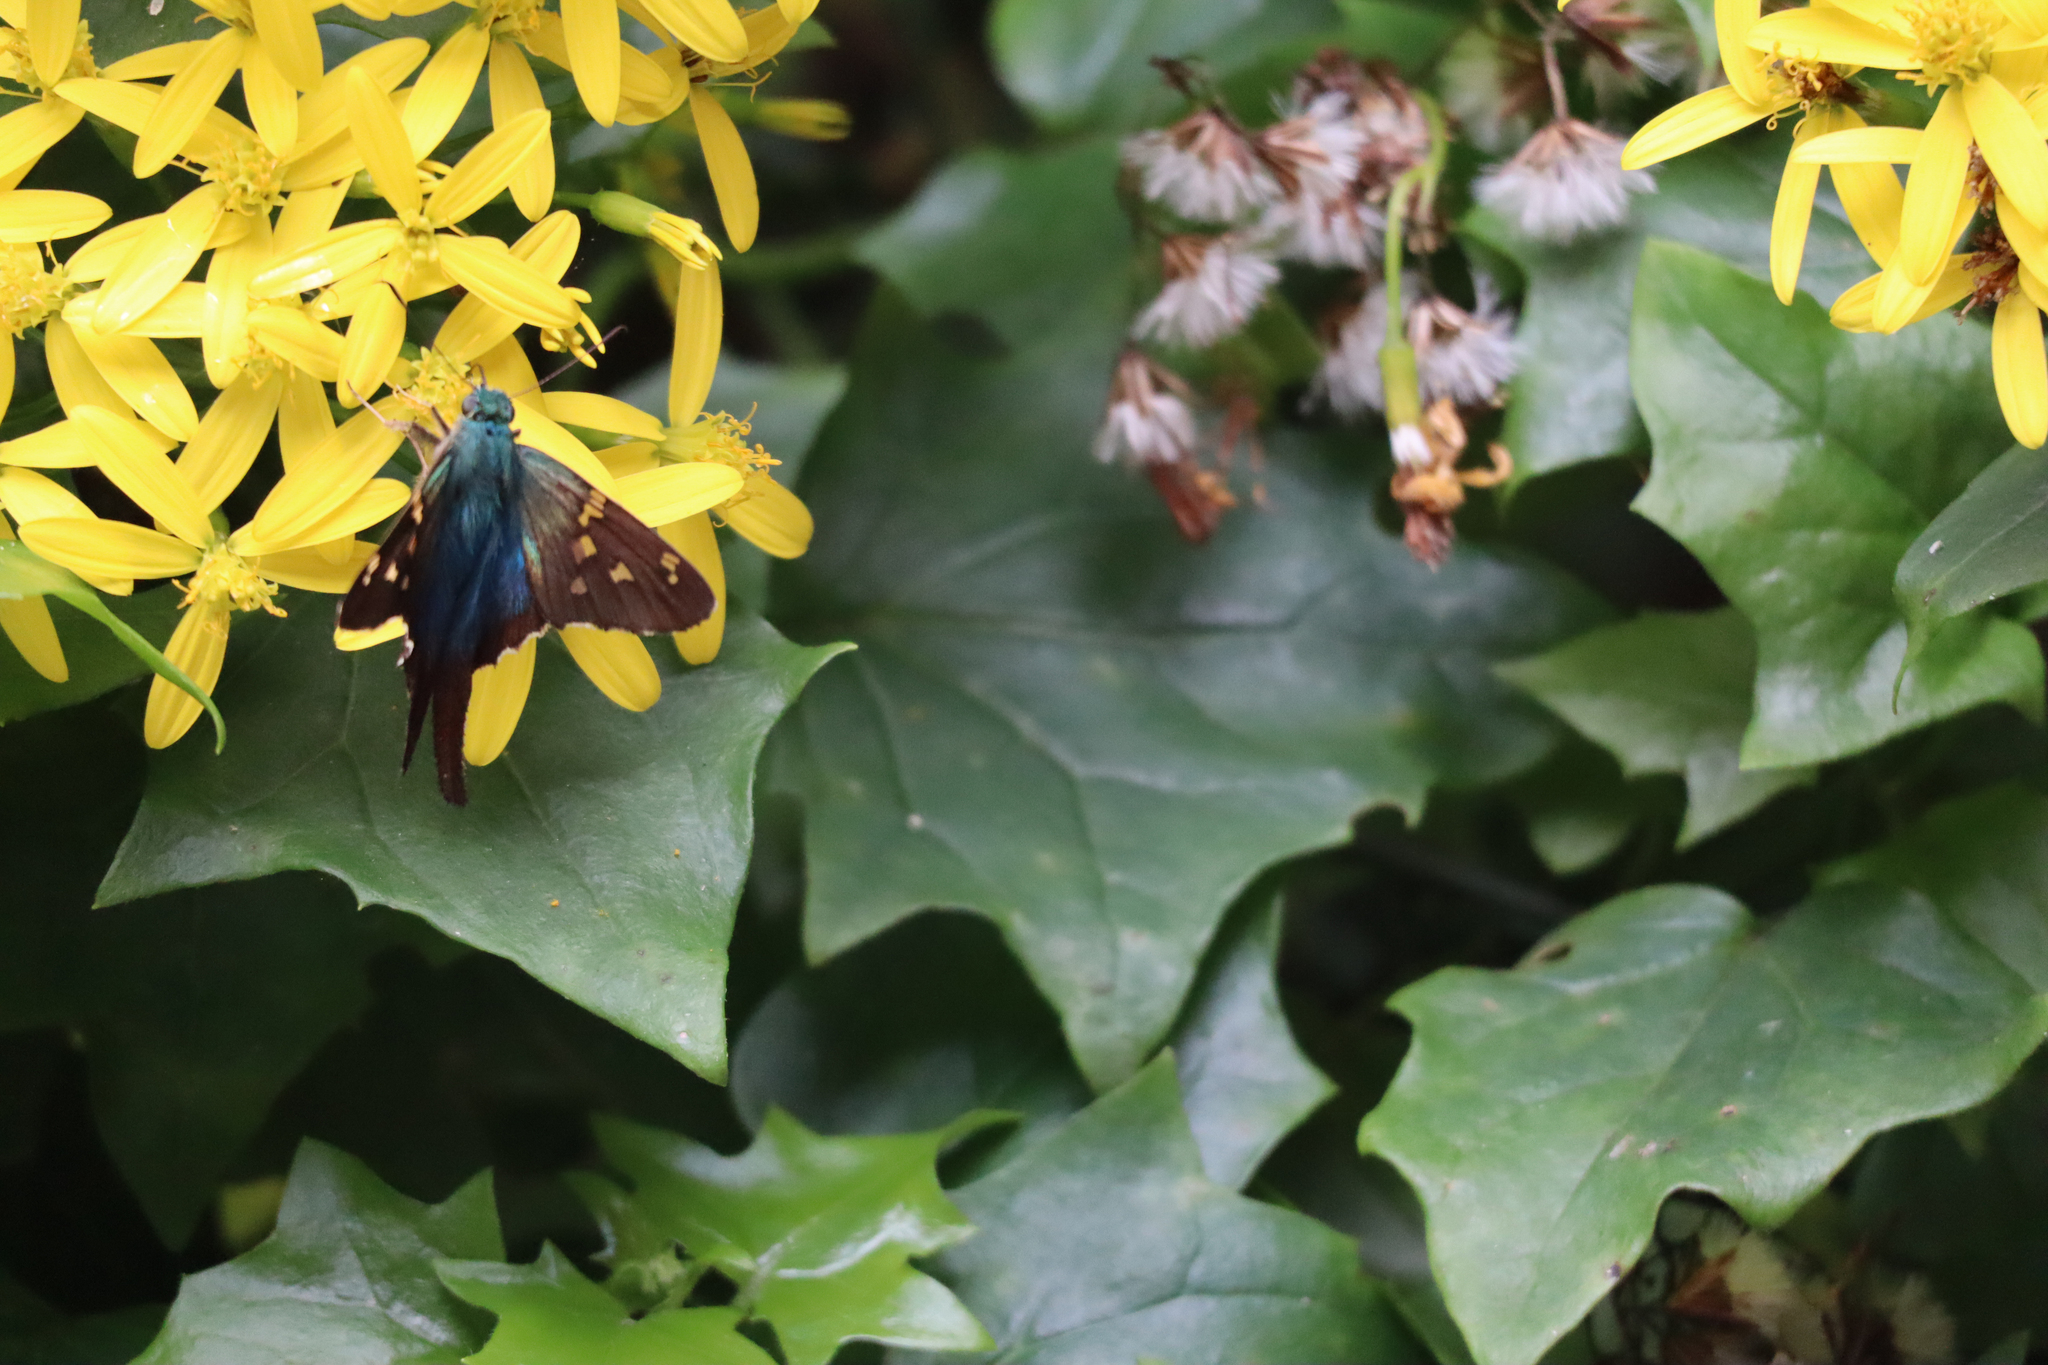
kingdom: Animalia
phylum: Arthropoda
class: Insecta
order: Lepidoptera
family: Hesperiidae
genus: Urbanus
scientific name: Urbanus proteus
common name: Long-tailed skipper
